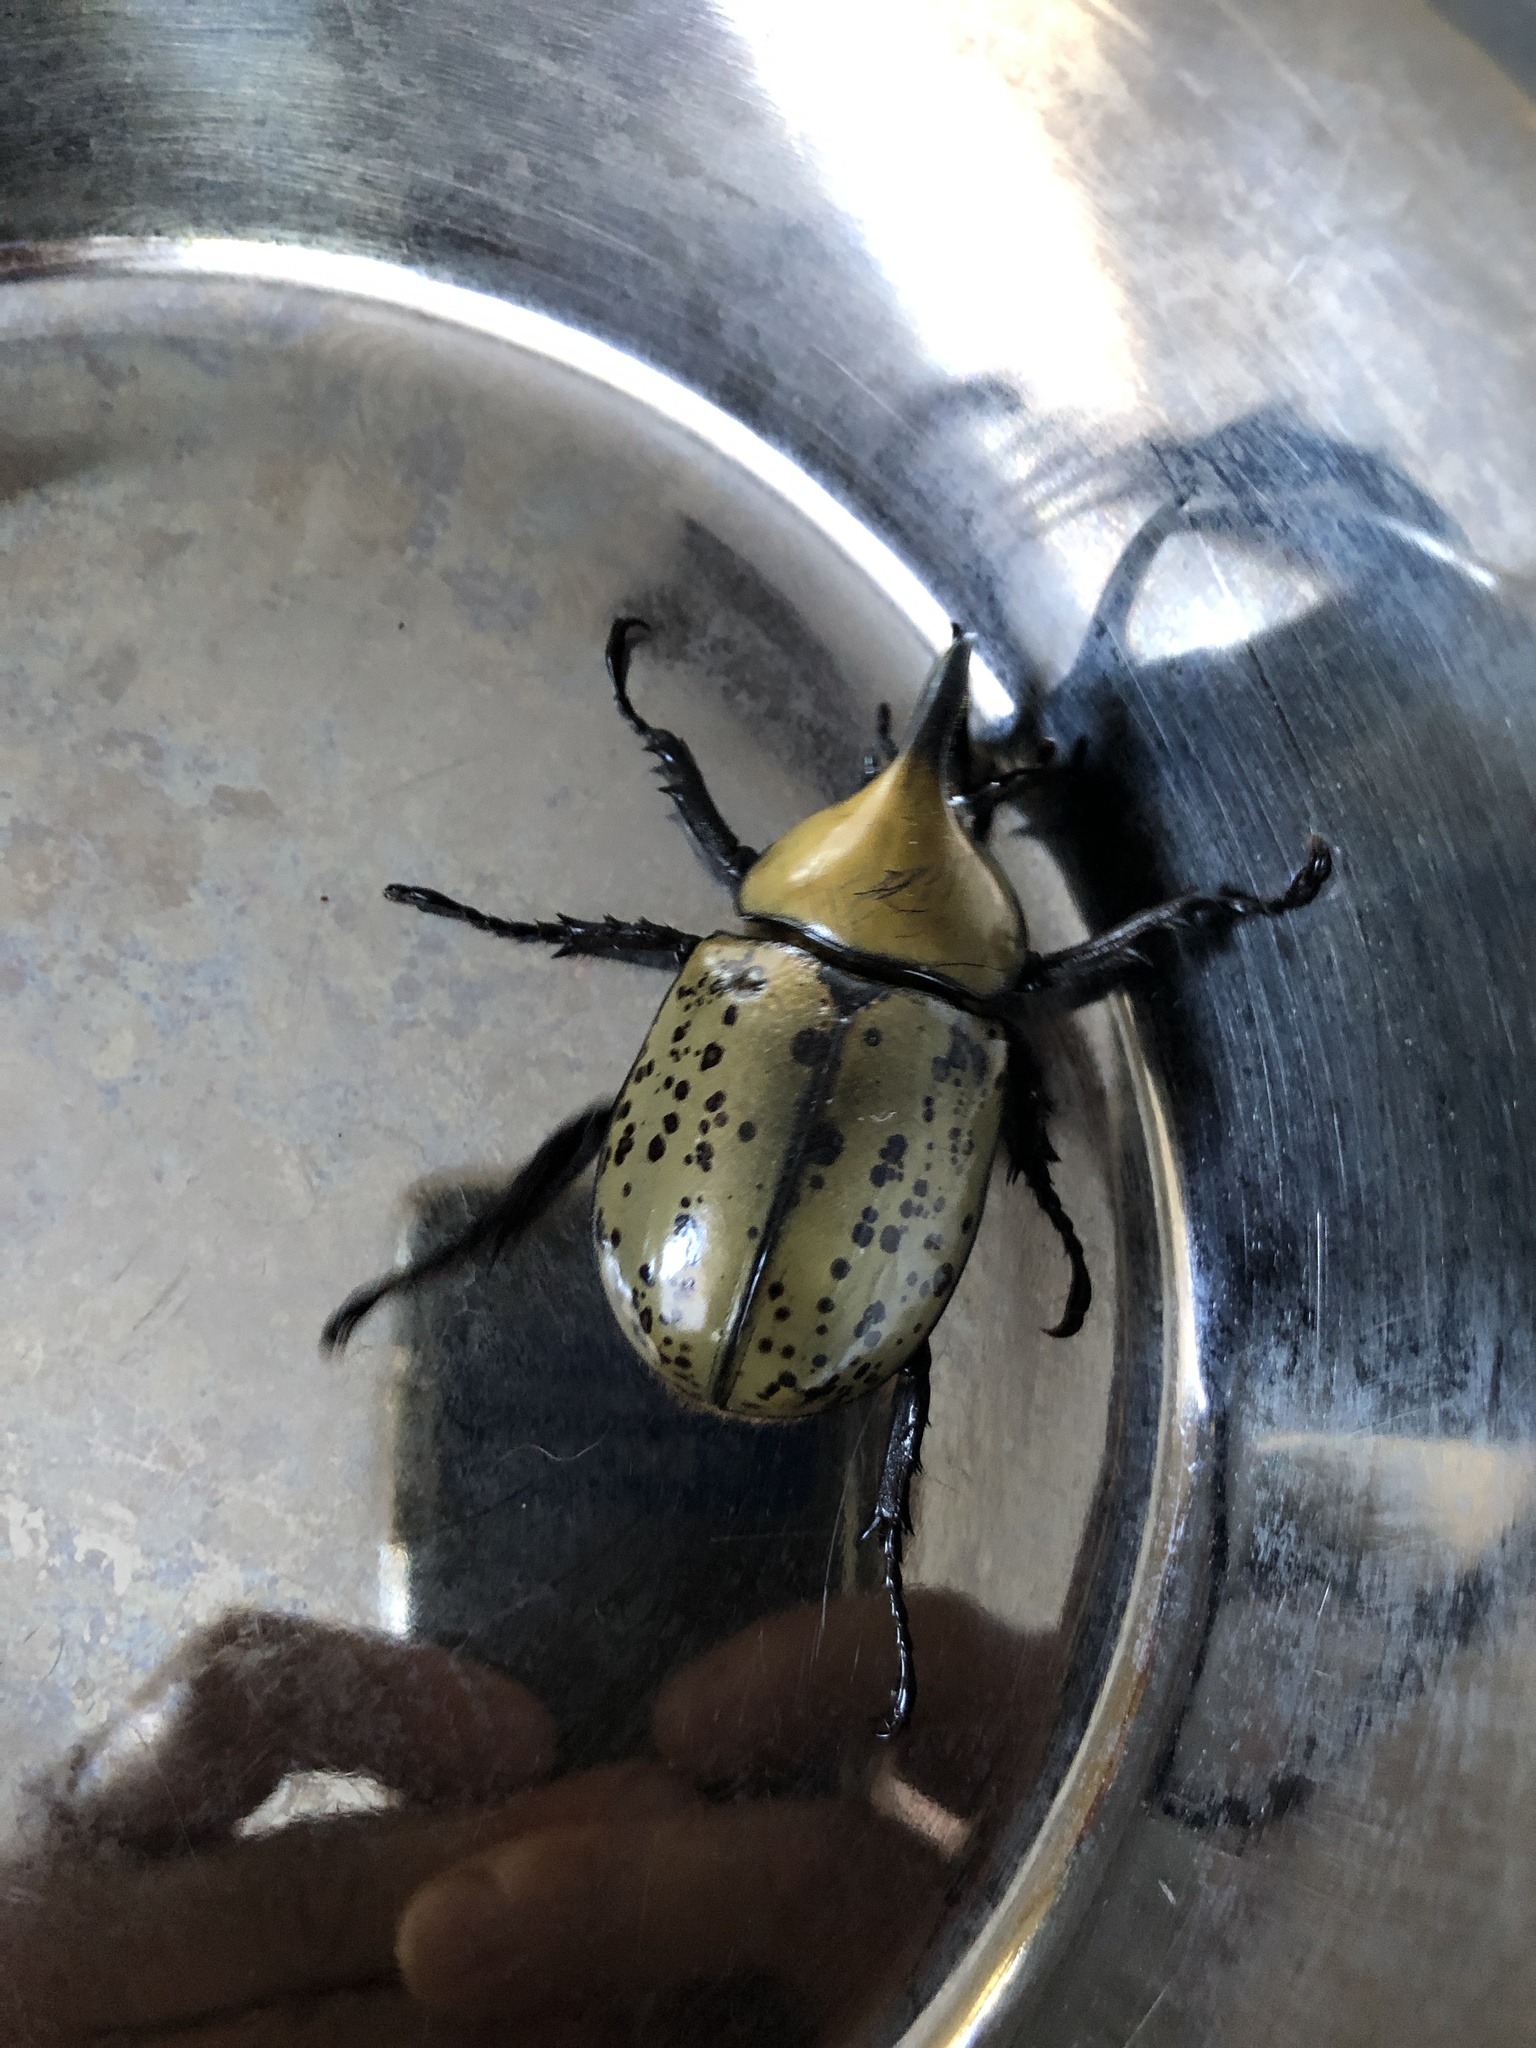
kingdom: Animalia
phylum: Arthropoda
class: Insecta
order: Coleoptera
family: Scarabaeidae
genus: Dynastes
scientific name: Dynastes tityus
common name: Eastern hercules beetle
